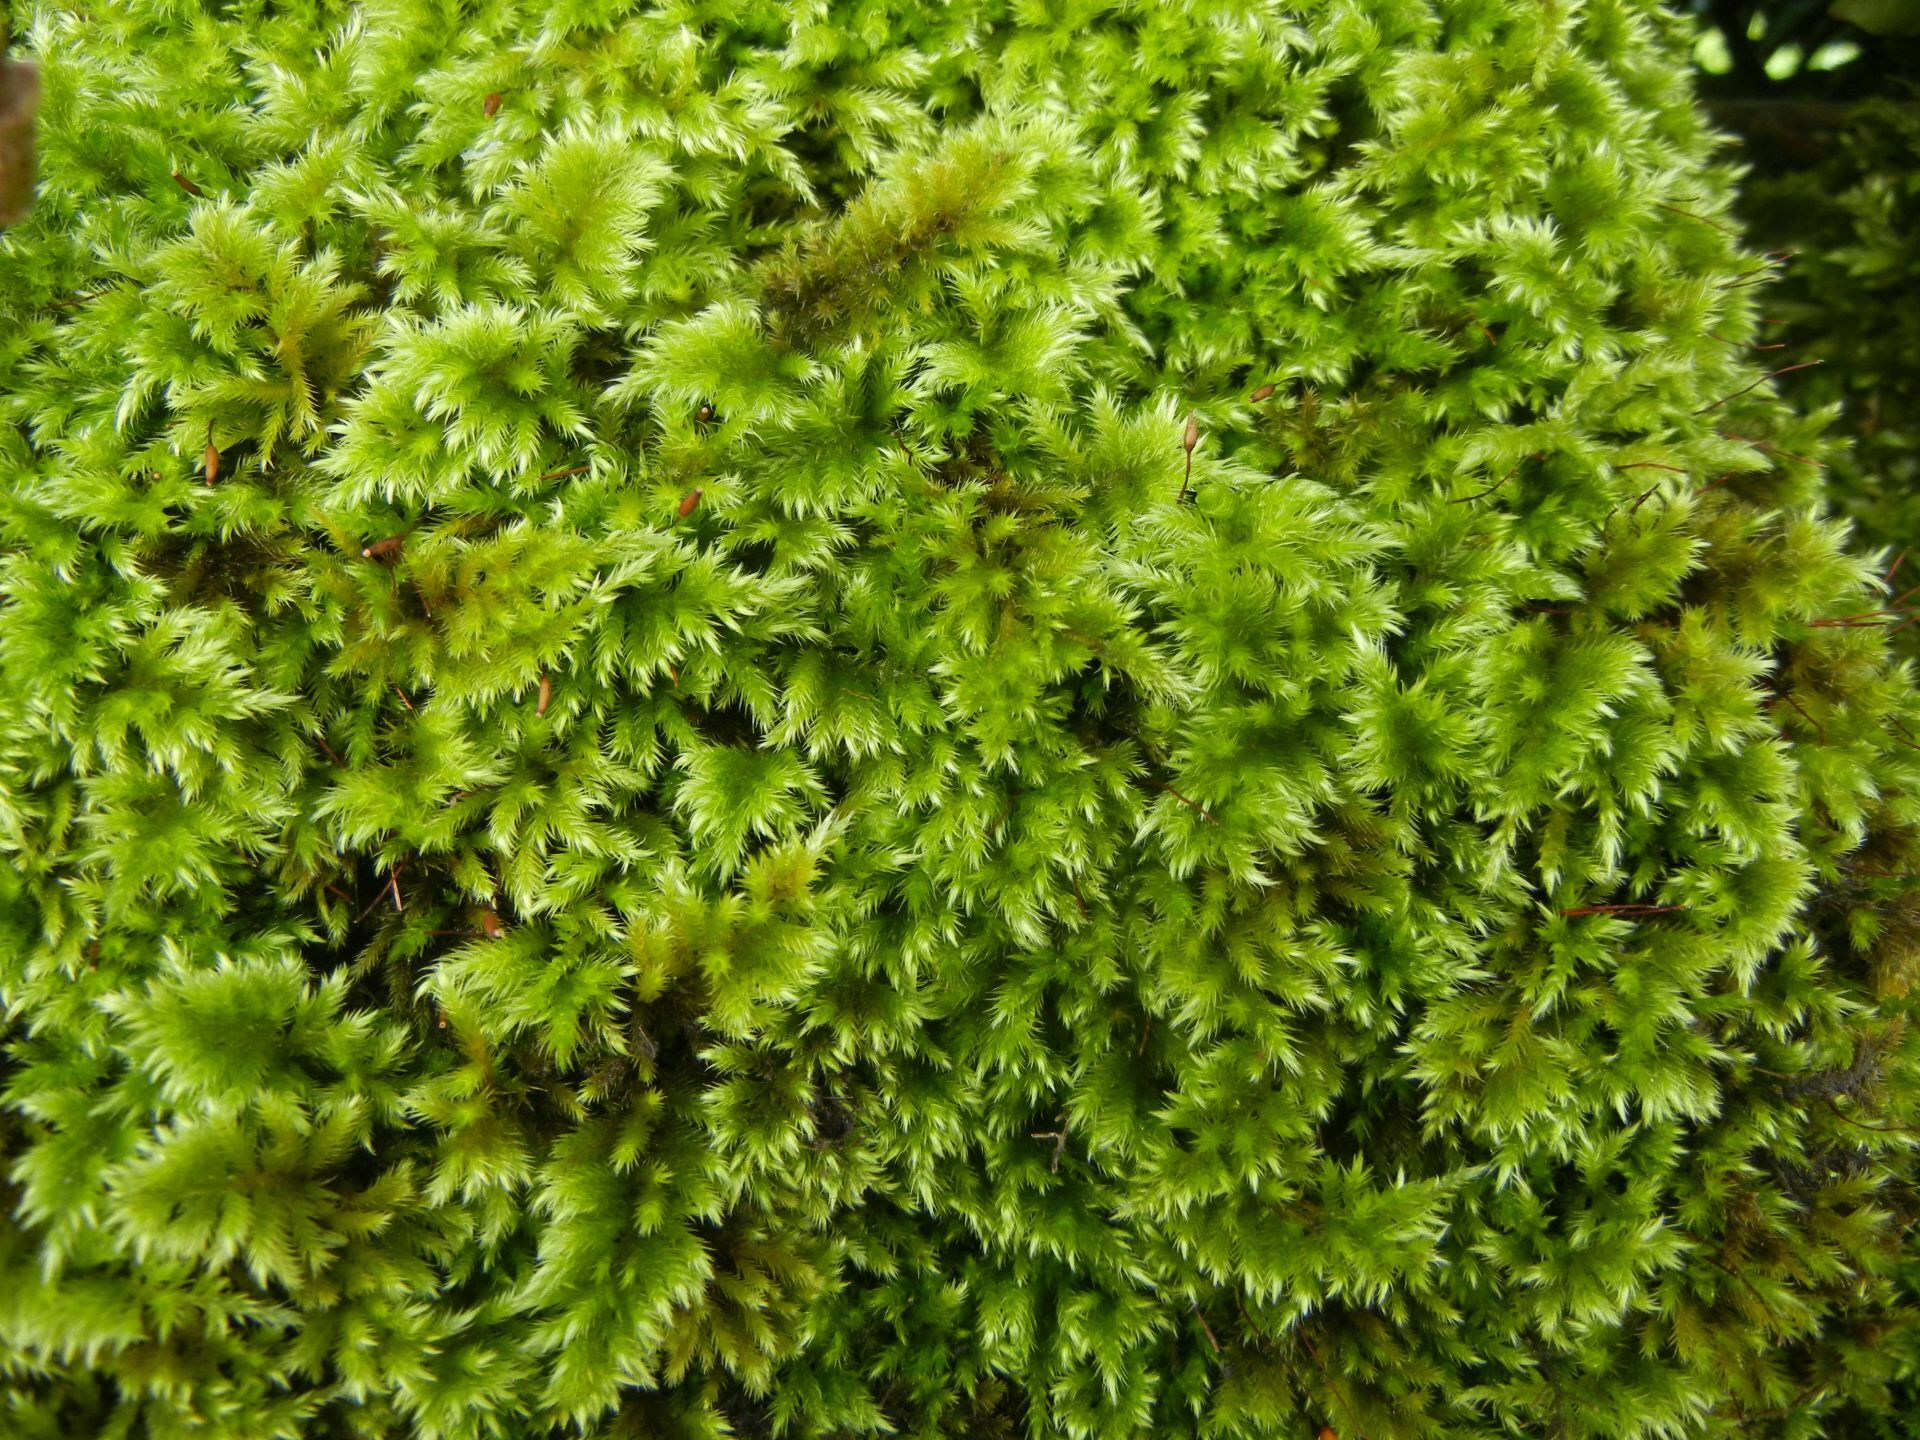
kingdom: Plantae
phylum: Bryophyta
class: Bryopsida
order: Hypnales
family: Brachytheciaceae
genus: Homalothecium
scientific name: Homalothecium sericeum
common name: Silky wall feather-moss
